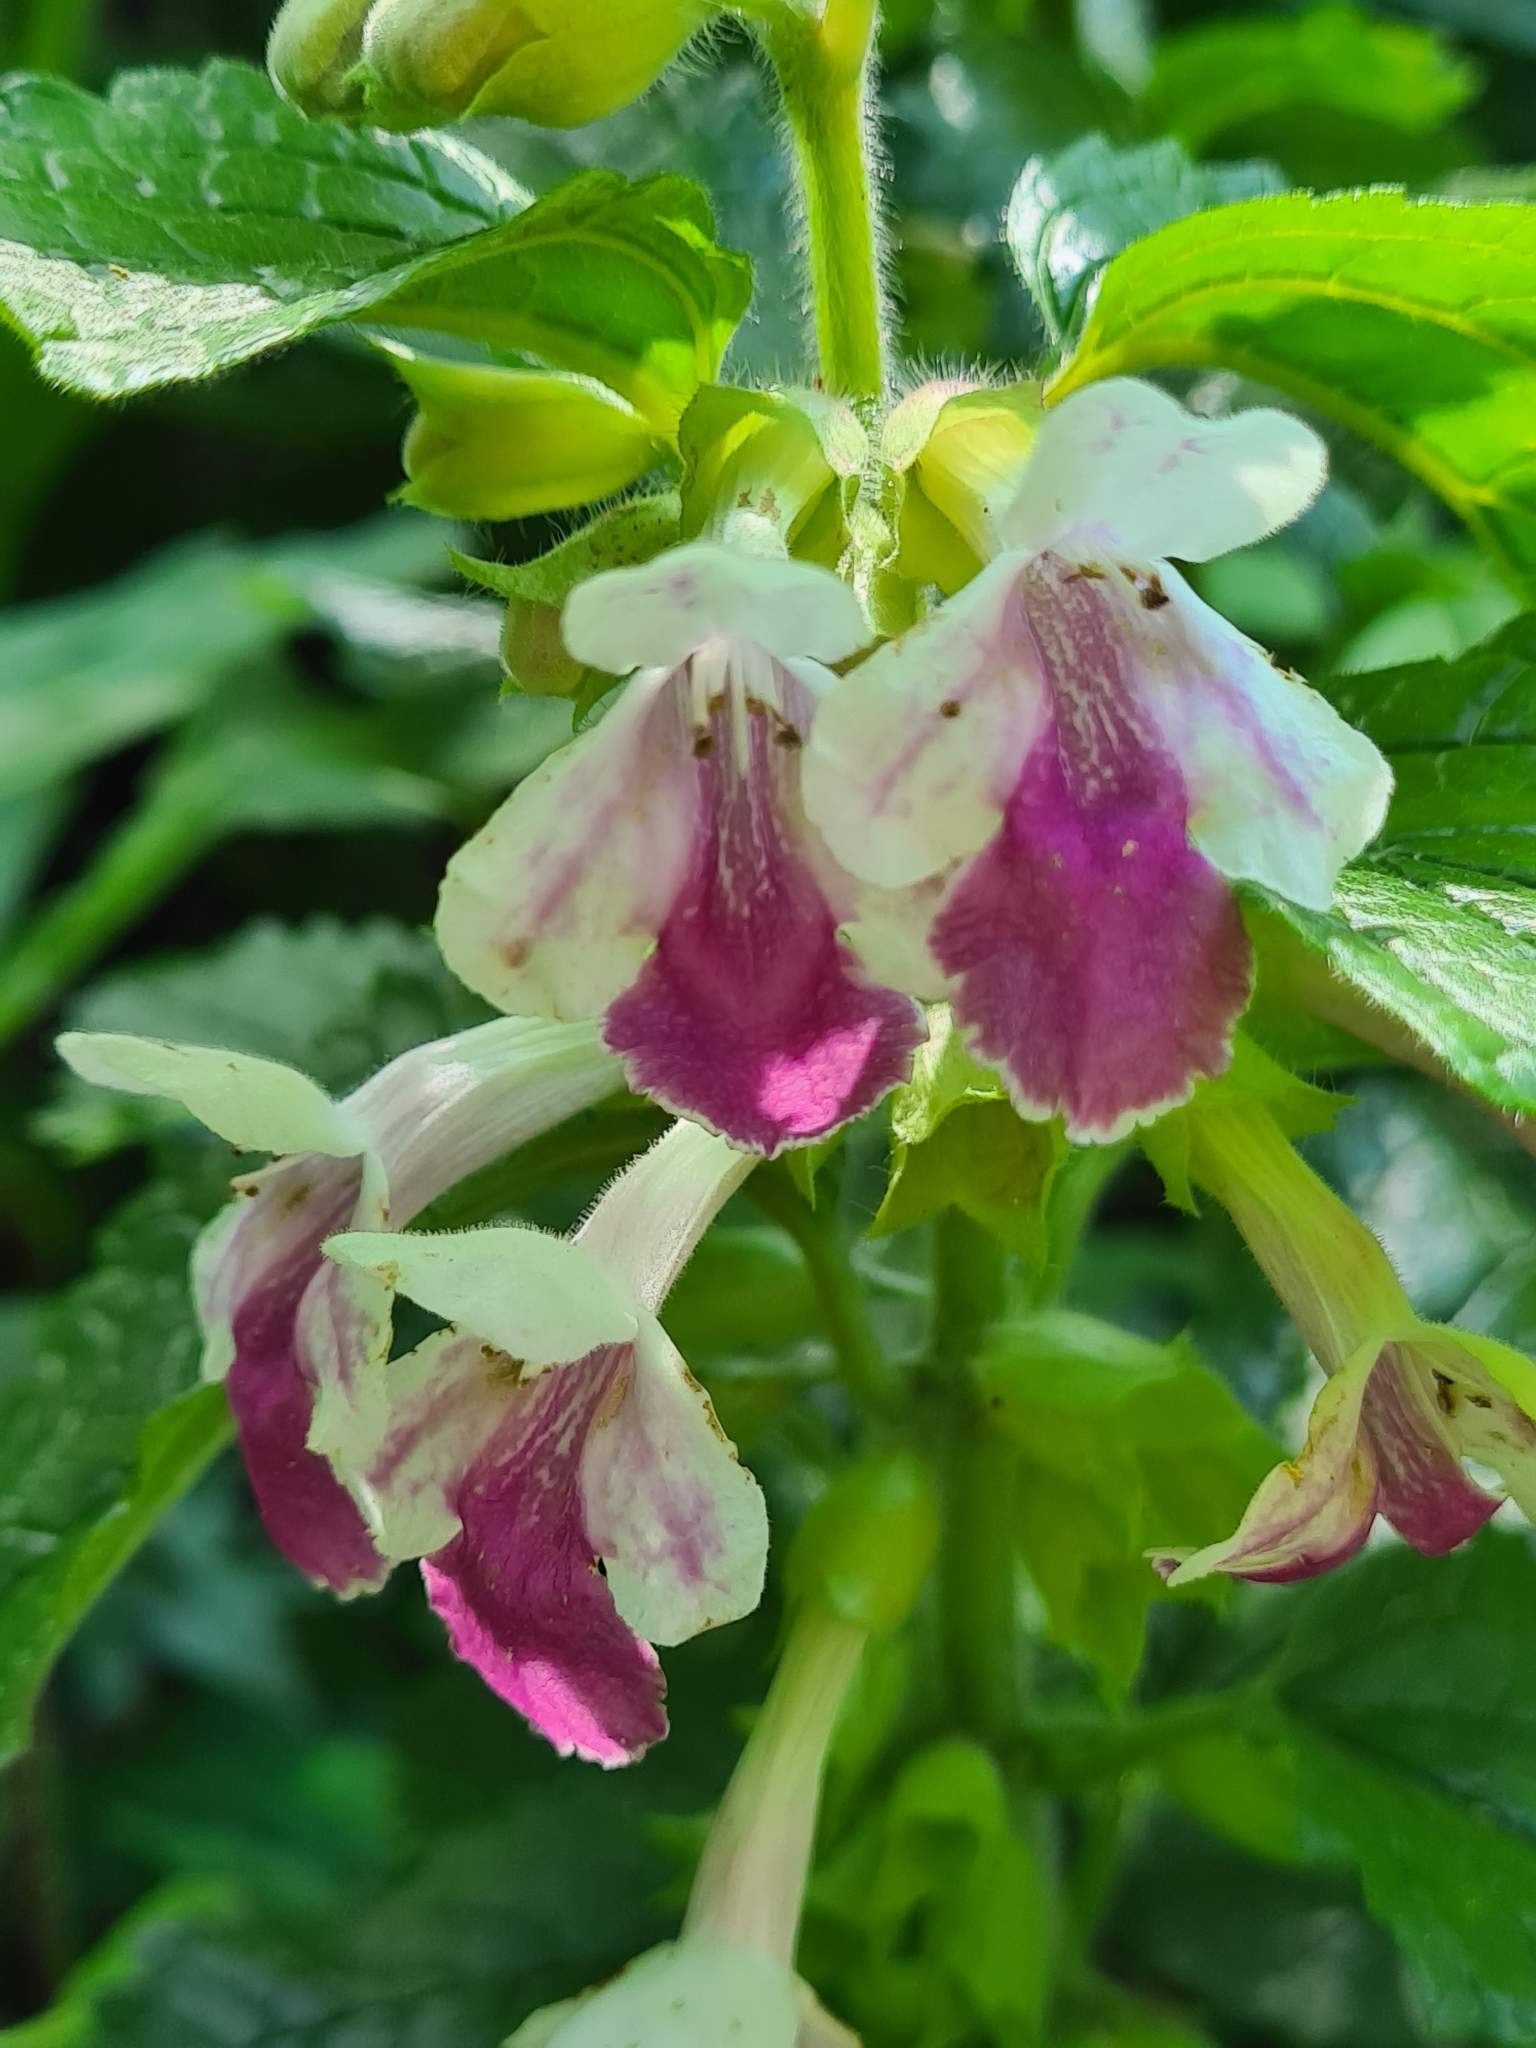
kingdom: Plantae
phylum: Tracheophyta
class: Magnoliopsida
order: Lamiales
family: Lamiaceae
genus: Melittis
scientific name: Melittis melissophyllum
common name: Bastard balm
